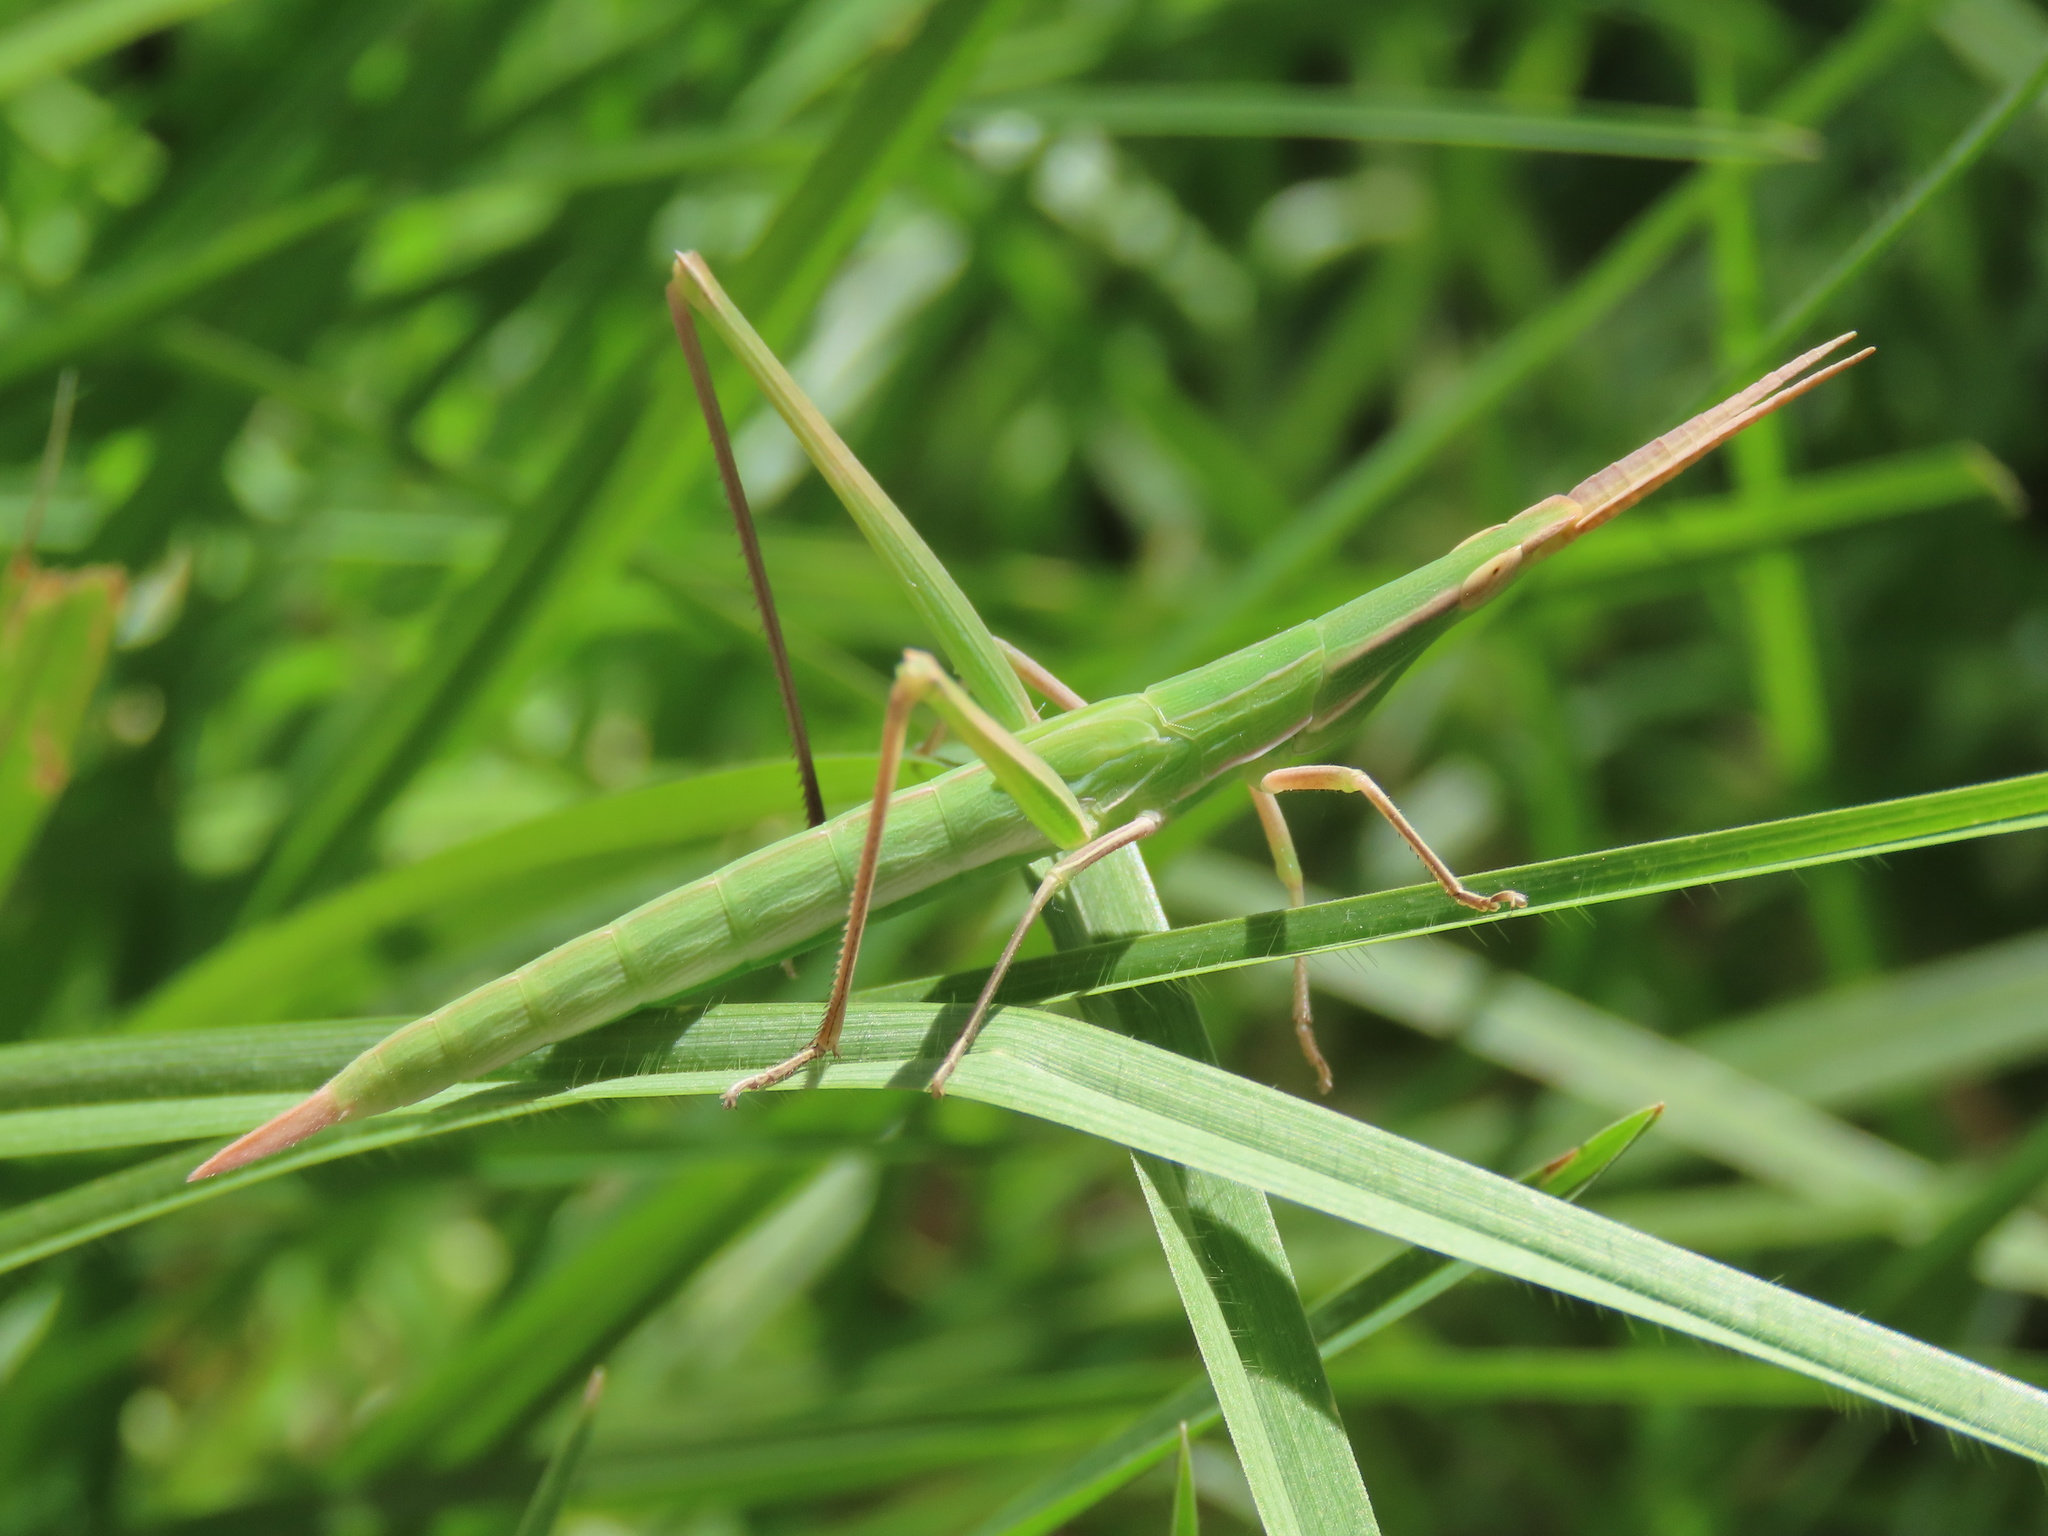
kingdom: Animalia
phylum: Arthropoda
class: Insecta
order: Orthoptera
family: Acrididae
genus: Acrida
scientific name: Acrida conica
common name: Giant green slantface
